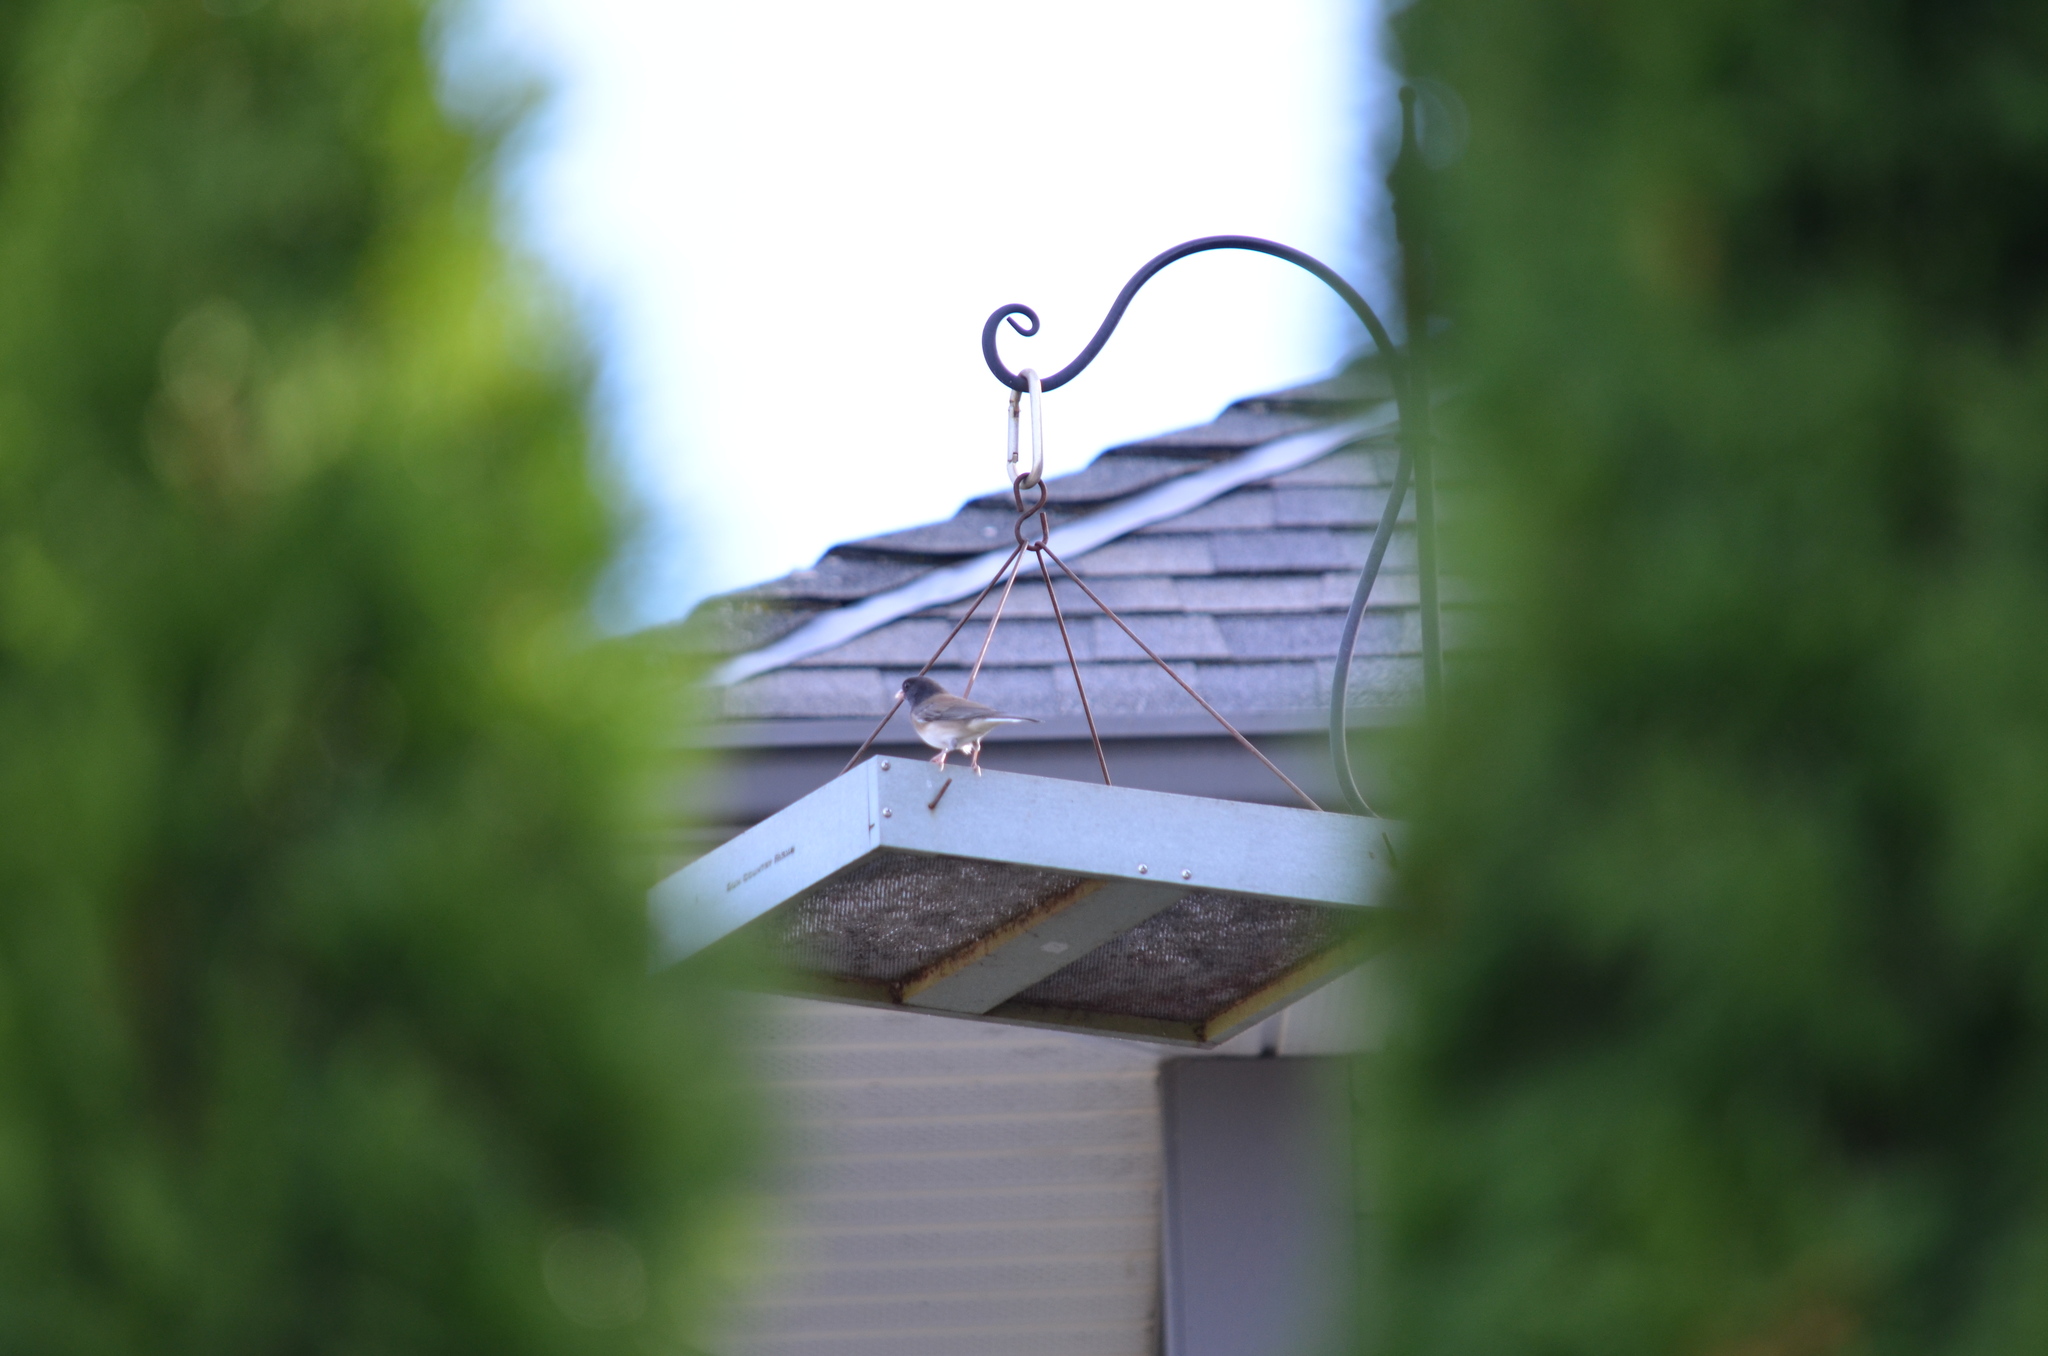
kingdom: Animalia
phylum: Chordata
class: Aves
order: Passeriformes
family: Passerellidae
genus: Junco
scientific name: Junco hyemalis
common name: Dark-eyed junco
